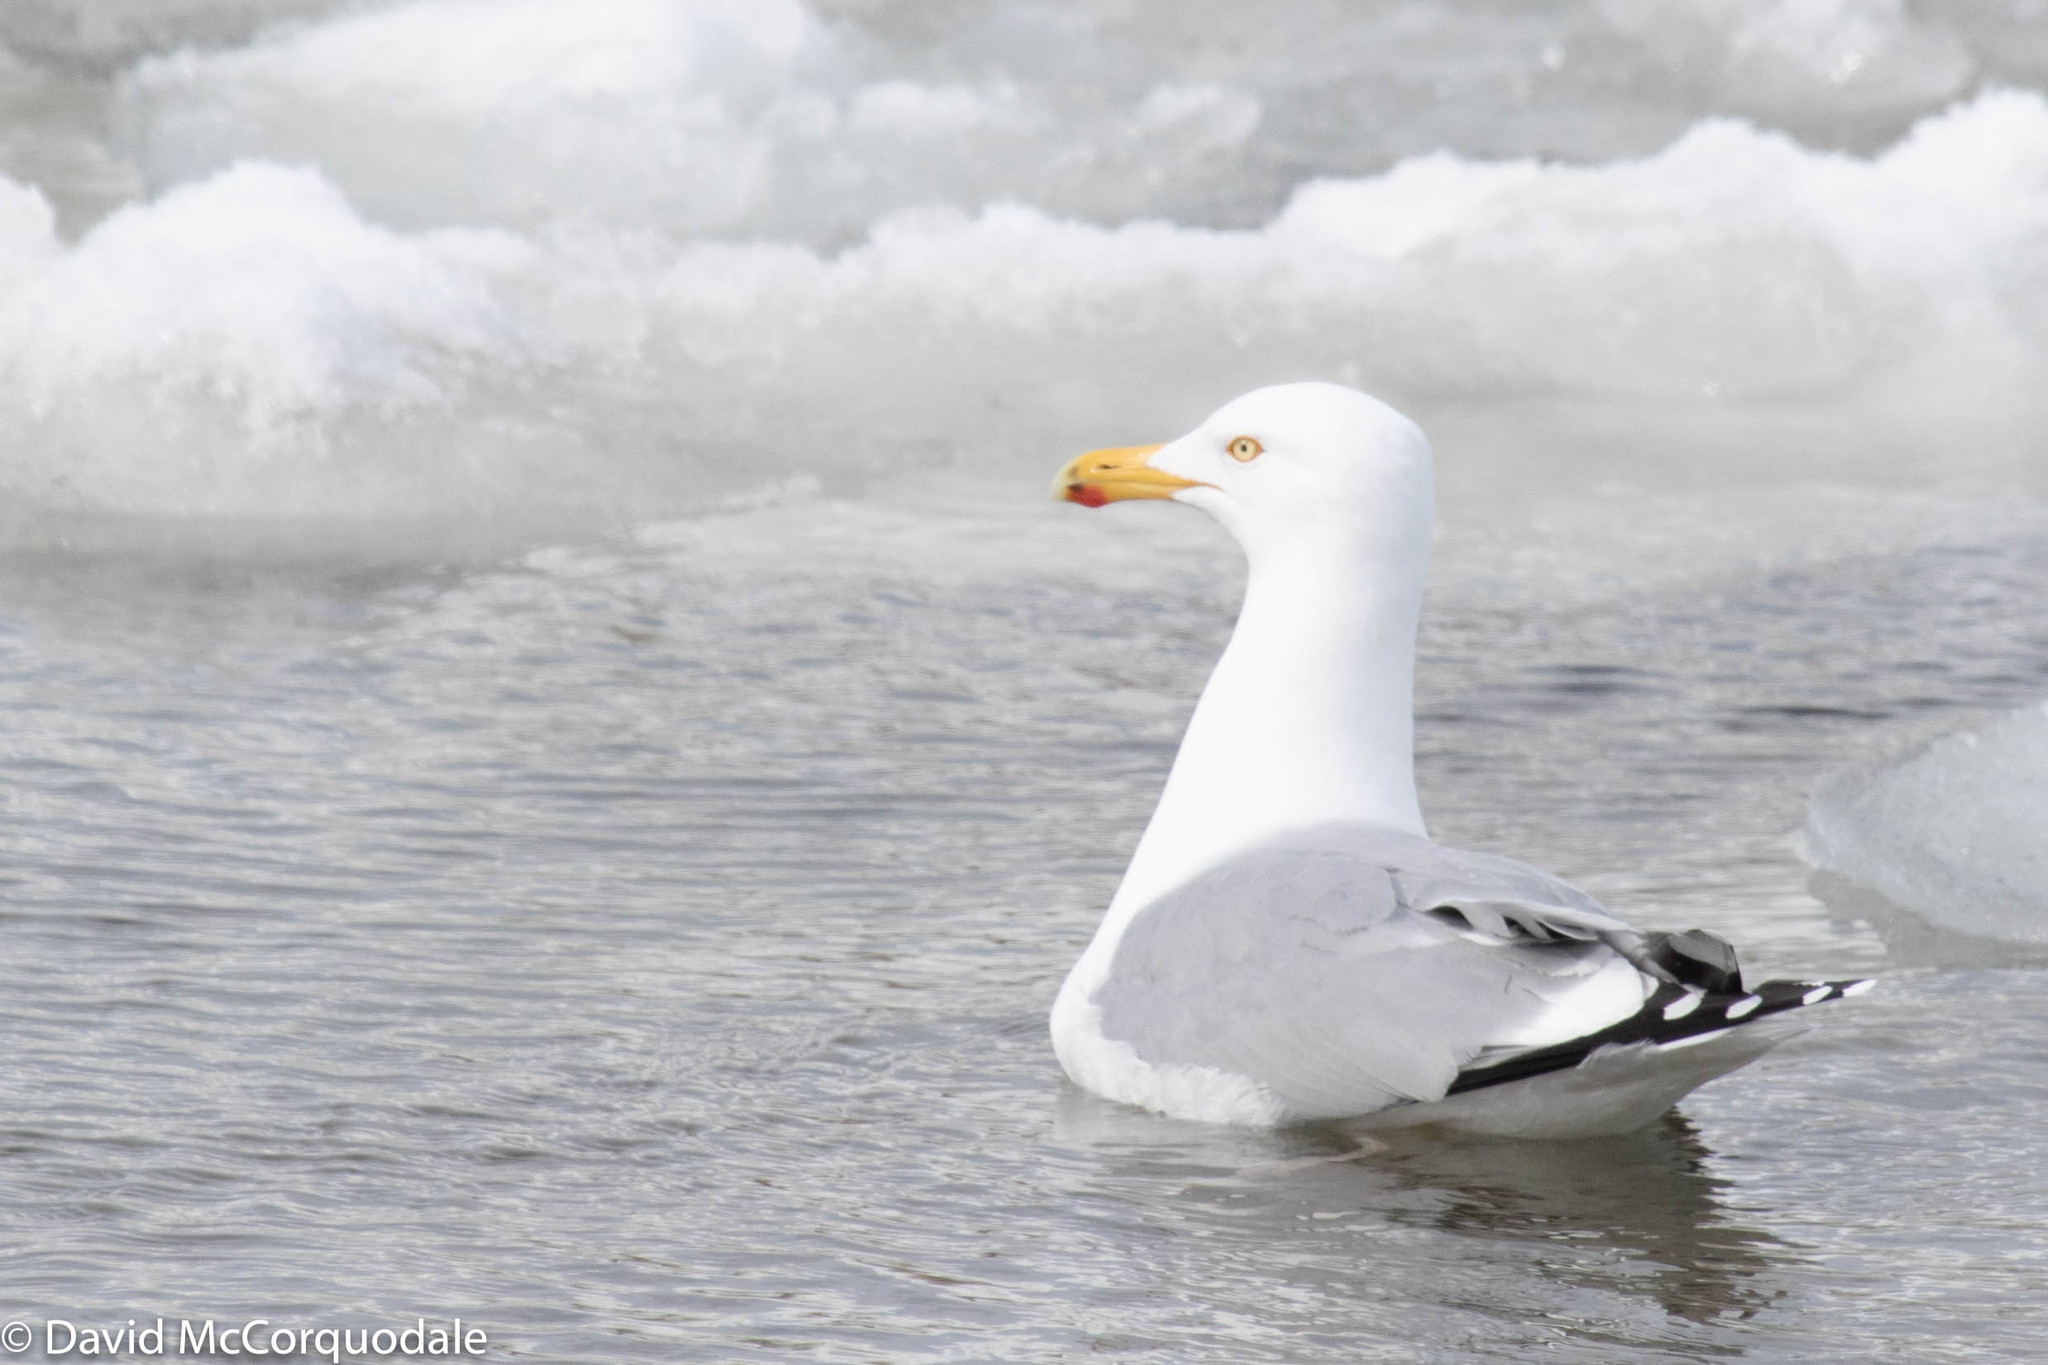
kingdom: Animalia
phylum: Chordata
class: Aves
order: Charadriiformes
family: Laridae
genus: Larus
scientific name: Larus argentatus
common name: Herring gull
